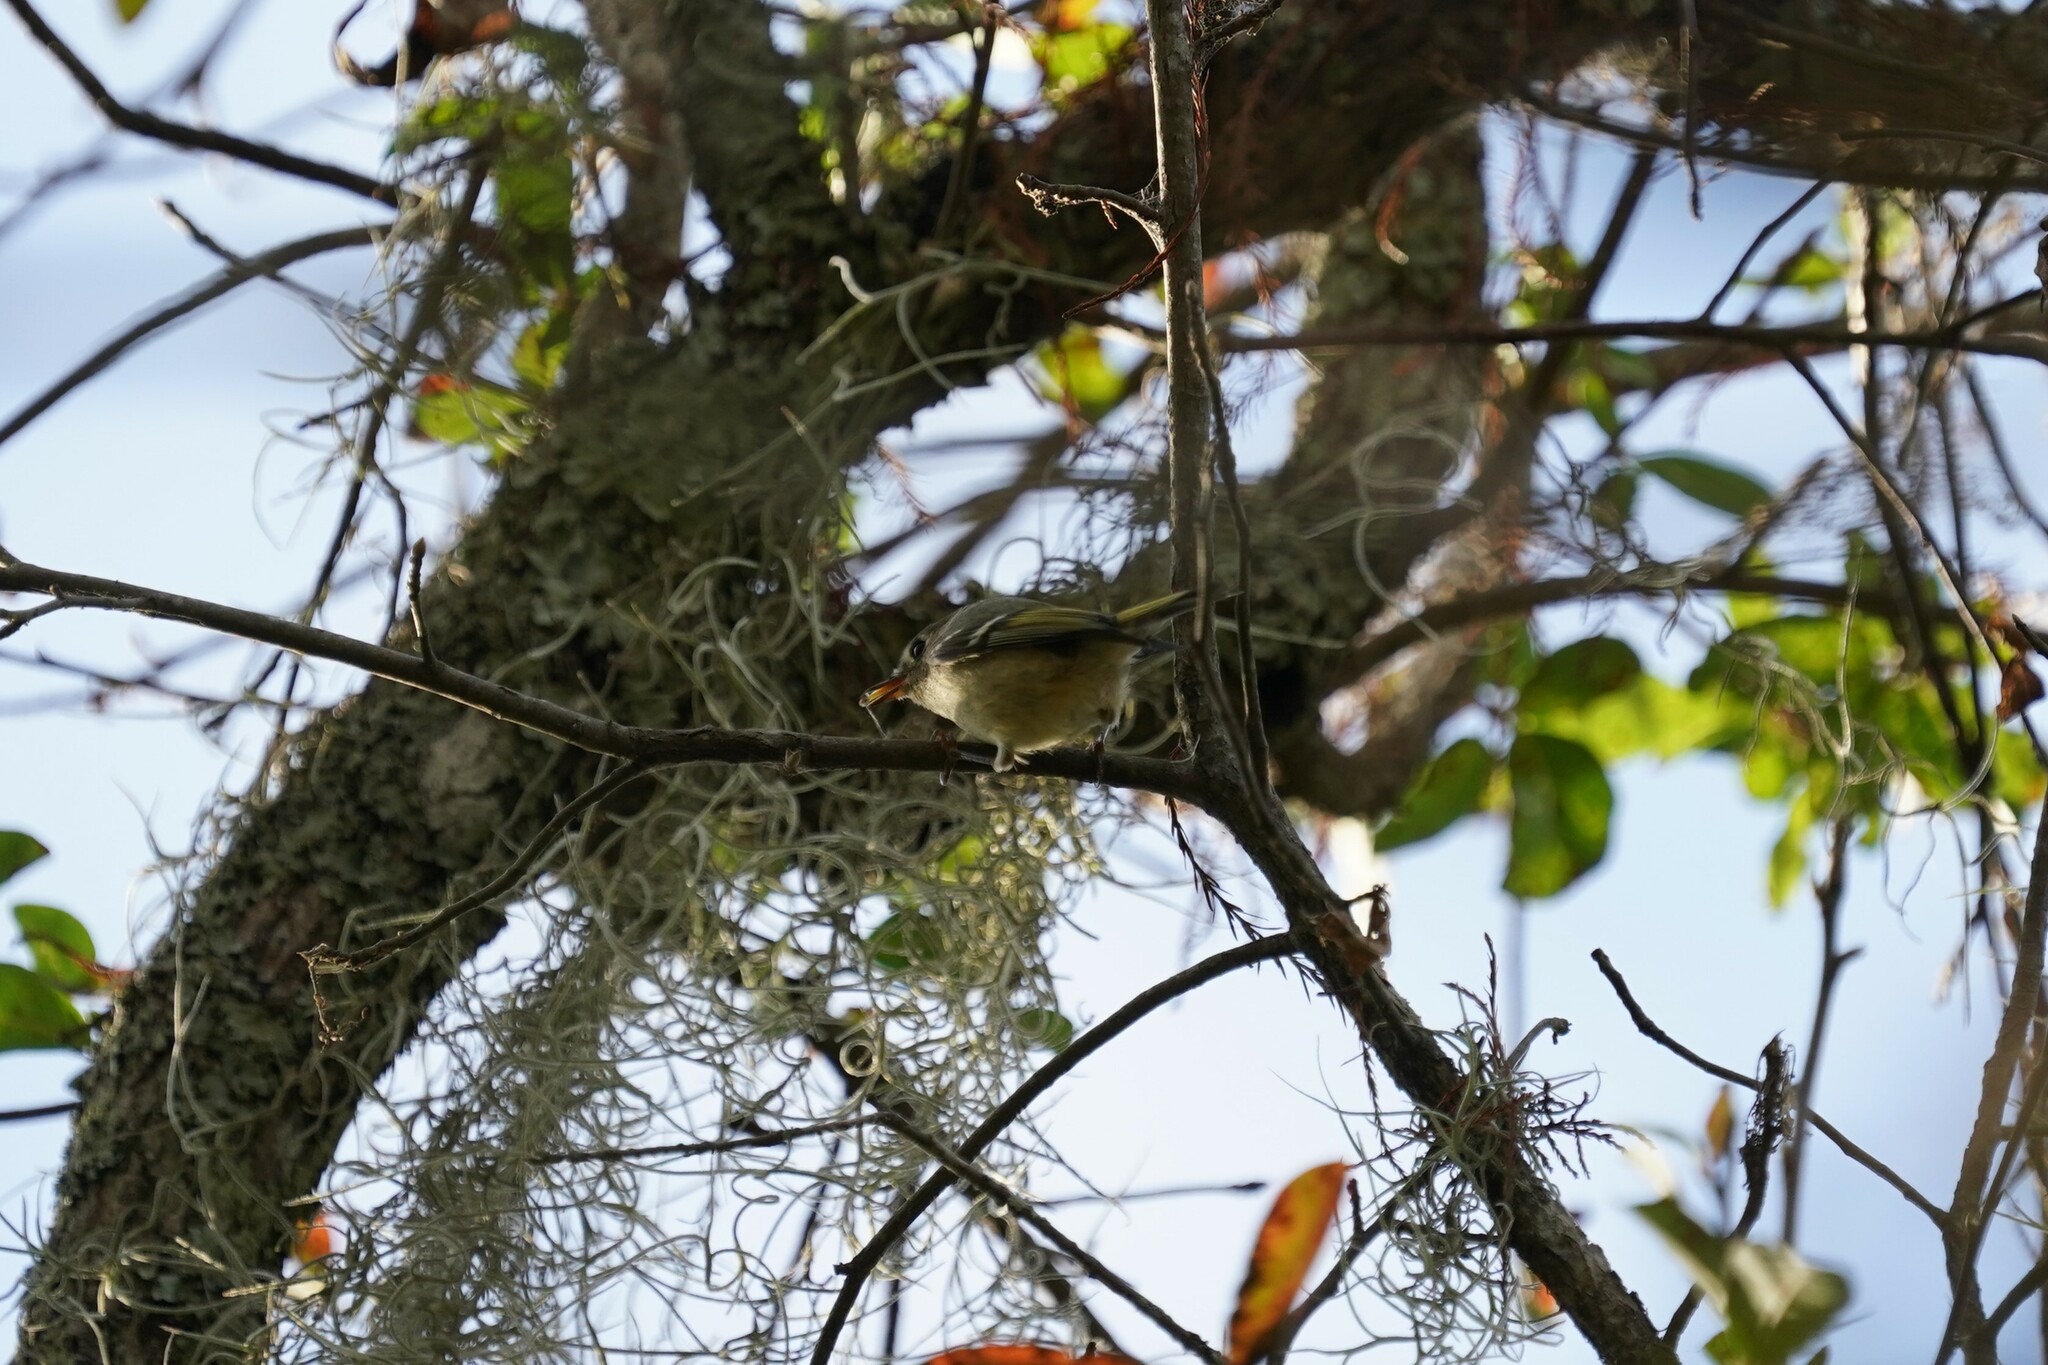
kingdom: Animalia
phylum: Chordata
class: Aves
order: Passeriformes
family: Regulidae
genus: Regulus
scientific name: Regulus calendula
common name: Ruby-crowned kinglet
